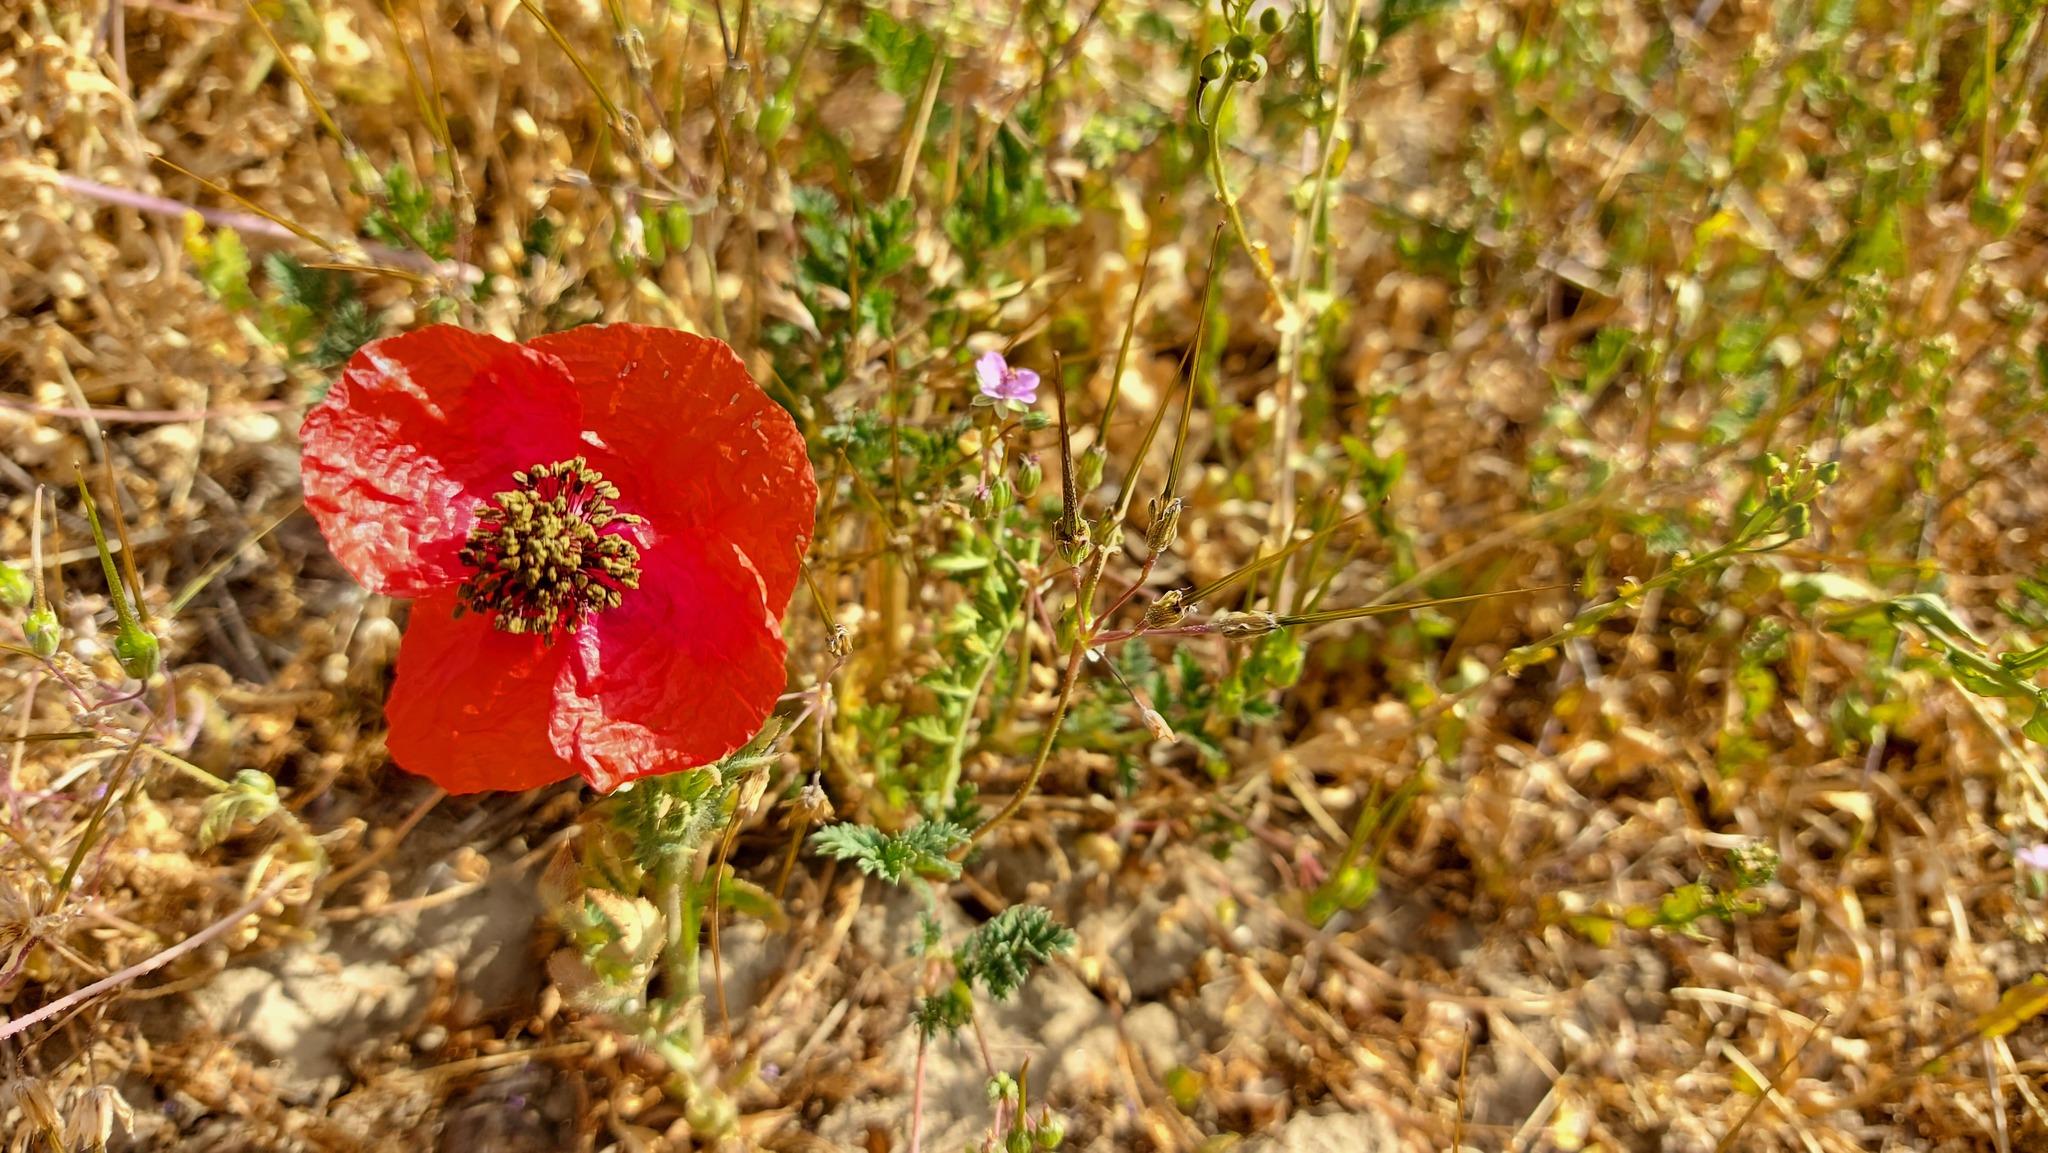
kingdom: Plantae
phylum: Tracheophyta
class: Magnoliopsida
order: Ranunculales
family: Papaveraceae
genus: Papaver
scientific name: Papaver rhoeas
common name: Corn poppy
